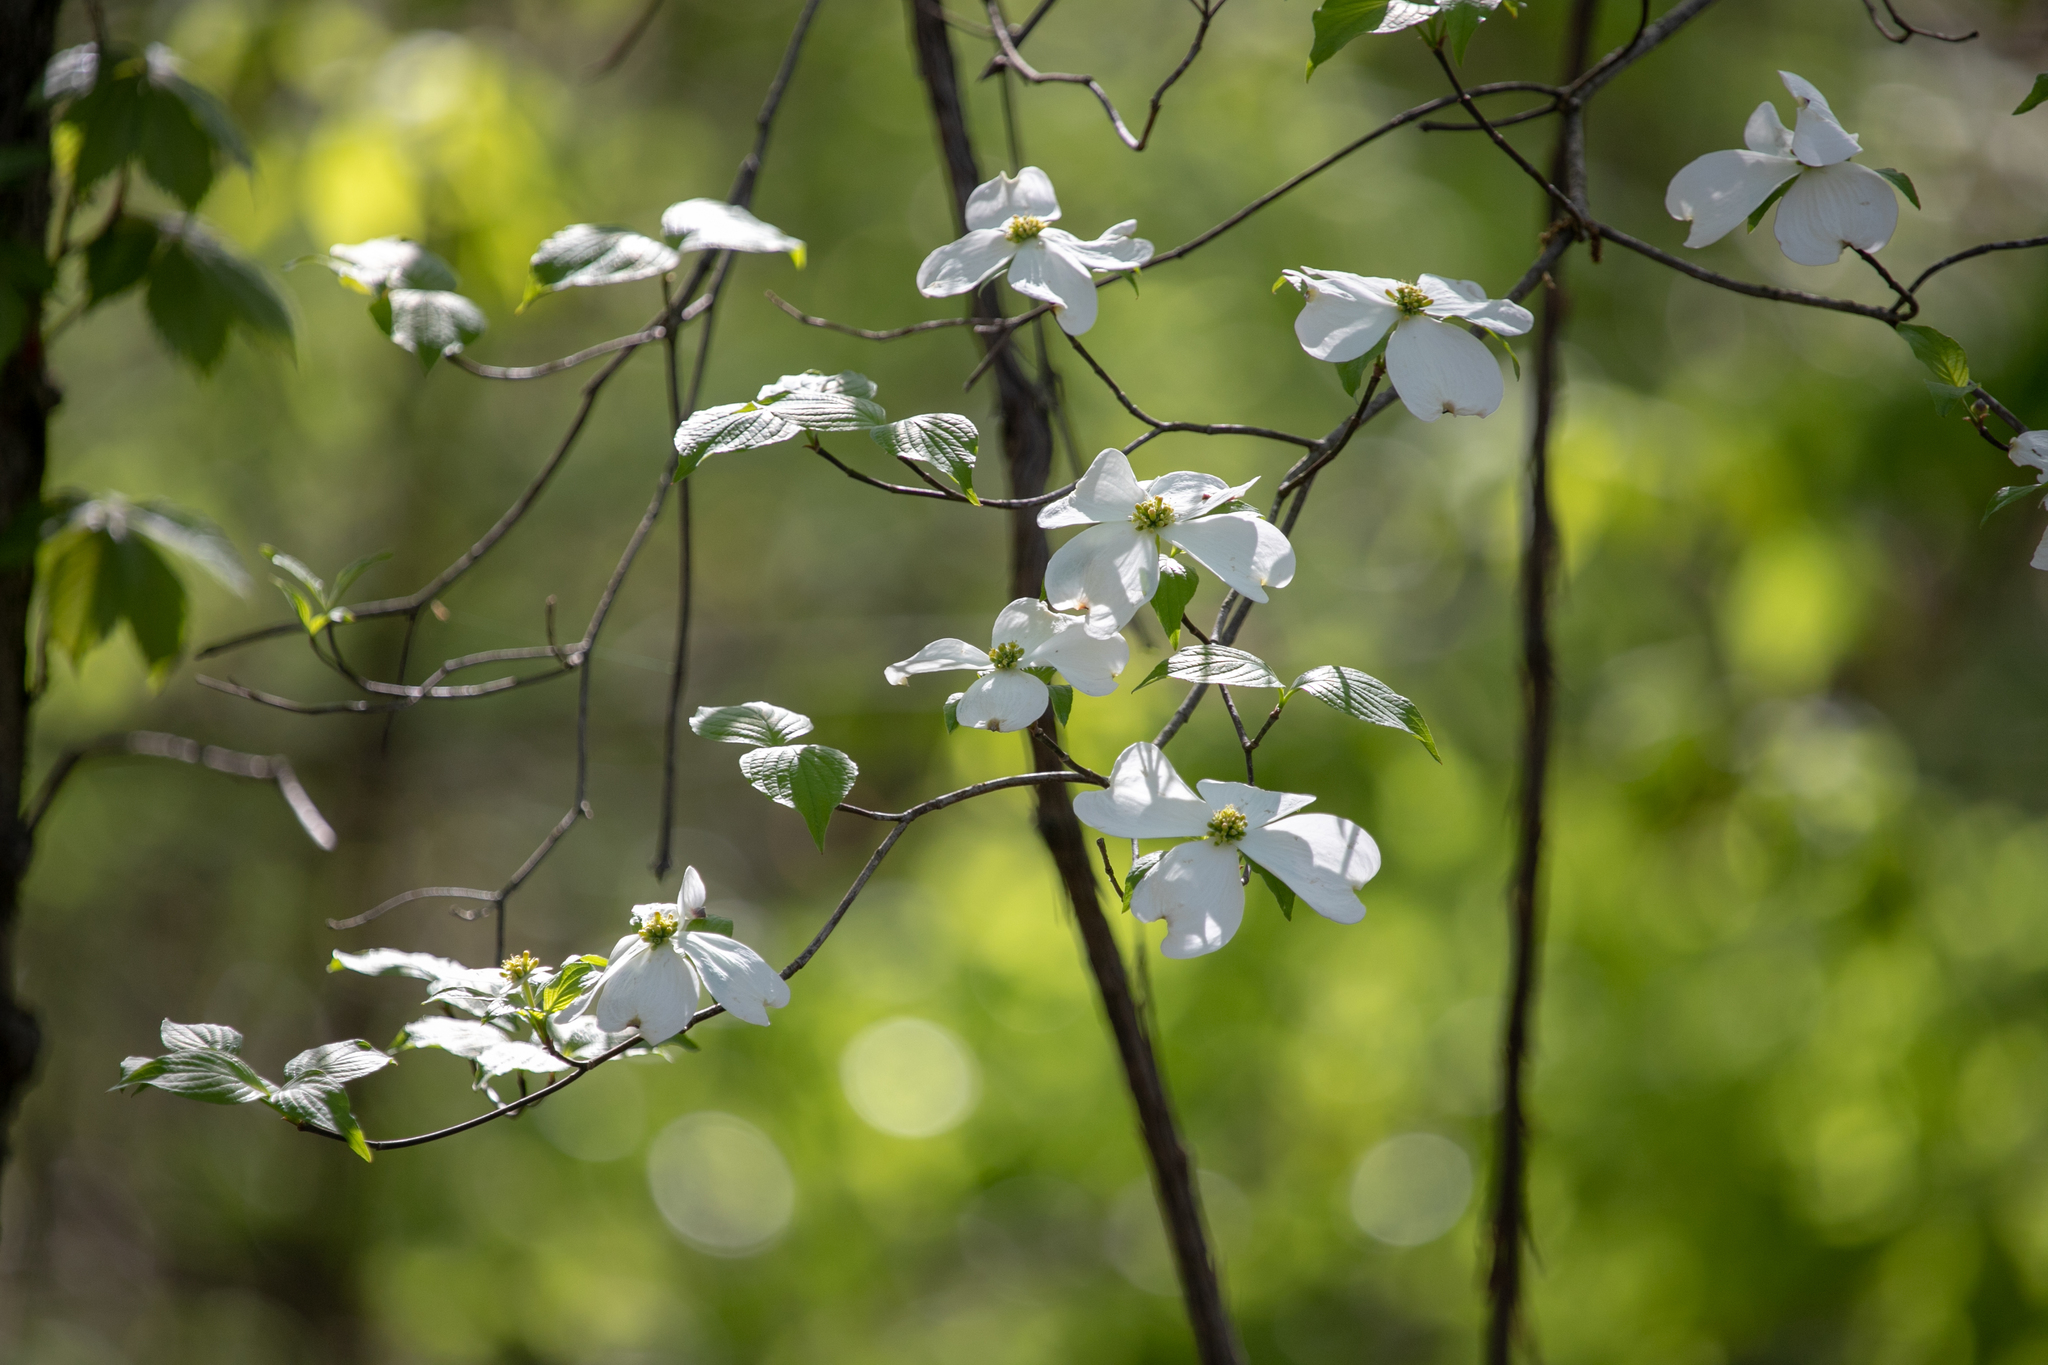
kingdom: Plantae
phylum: Tracheophyta
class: Magnoliopsida
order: Cornales
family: Cornaceae
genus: Cornus
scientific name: Cornus florida
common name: Flowering dogwood
